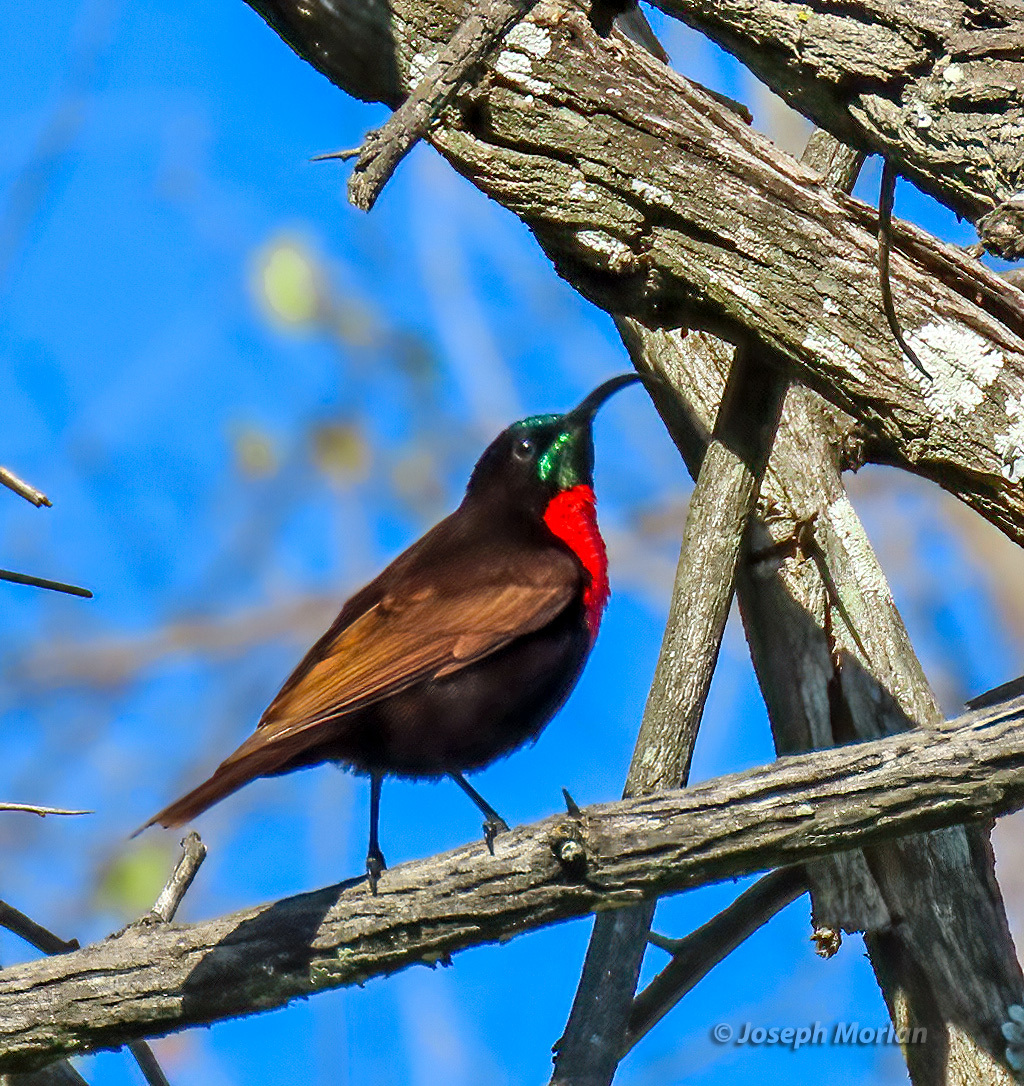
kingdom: Animalia
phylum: Chordata
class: Aves
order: Passeriformes
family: Nectariniidae
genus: Chalcomitra
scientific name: Chalcomitra senegalensis
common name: Scarlet-chested sunbird
